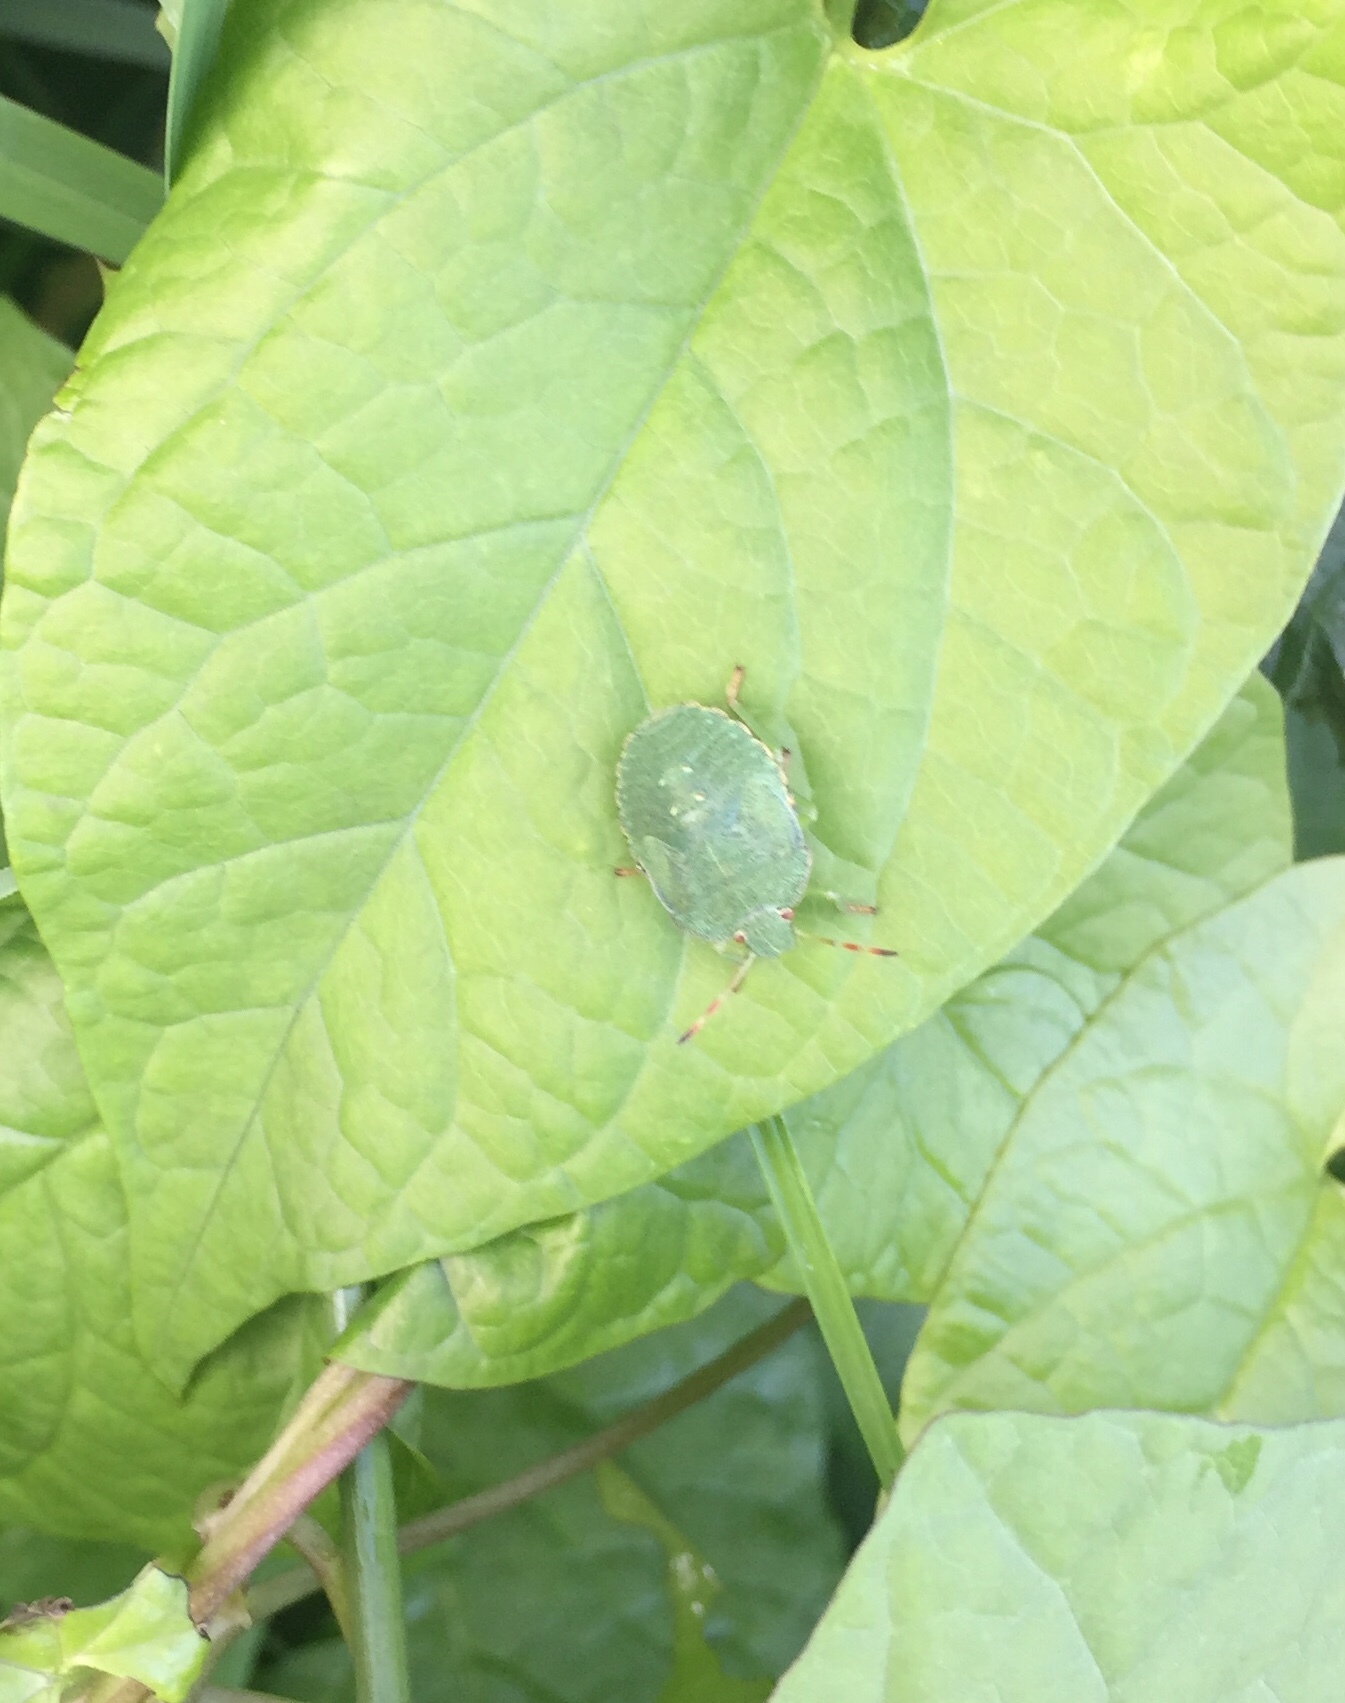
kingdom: Animalia
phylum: Arthropoda
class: Insecta
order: Hemiptera
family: Pentatomidae
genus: Palomena
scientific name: Palomena prasina
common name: Green shieldbug
